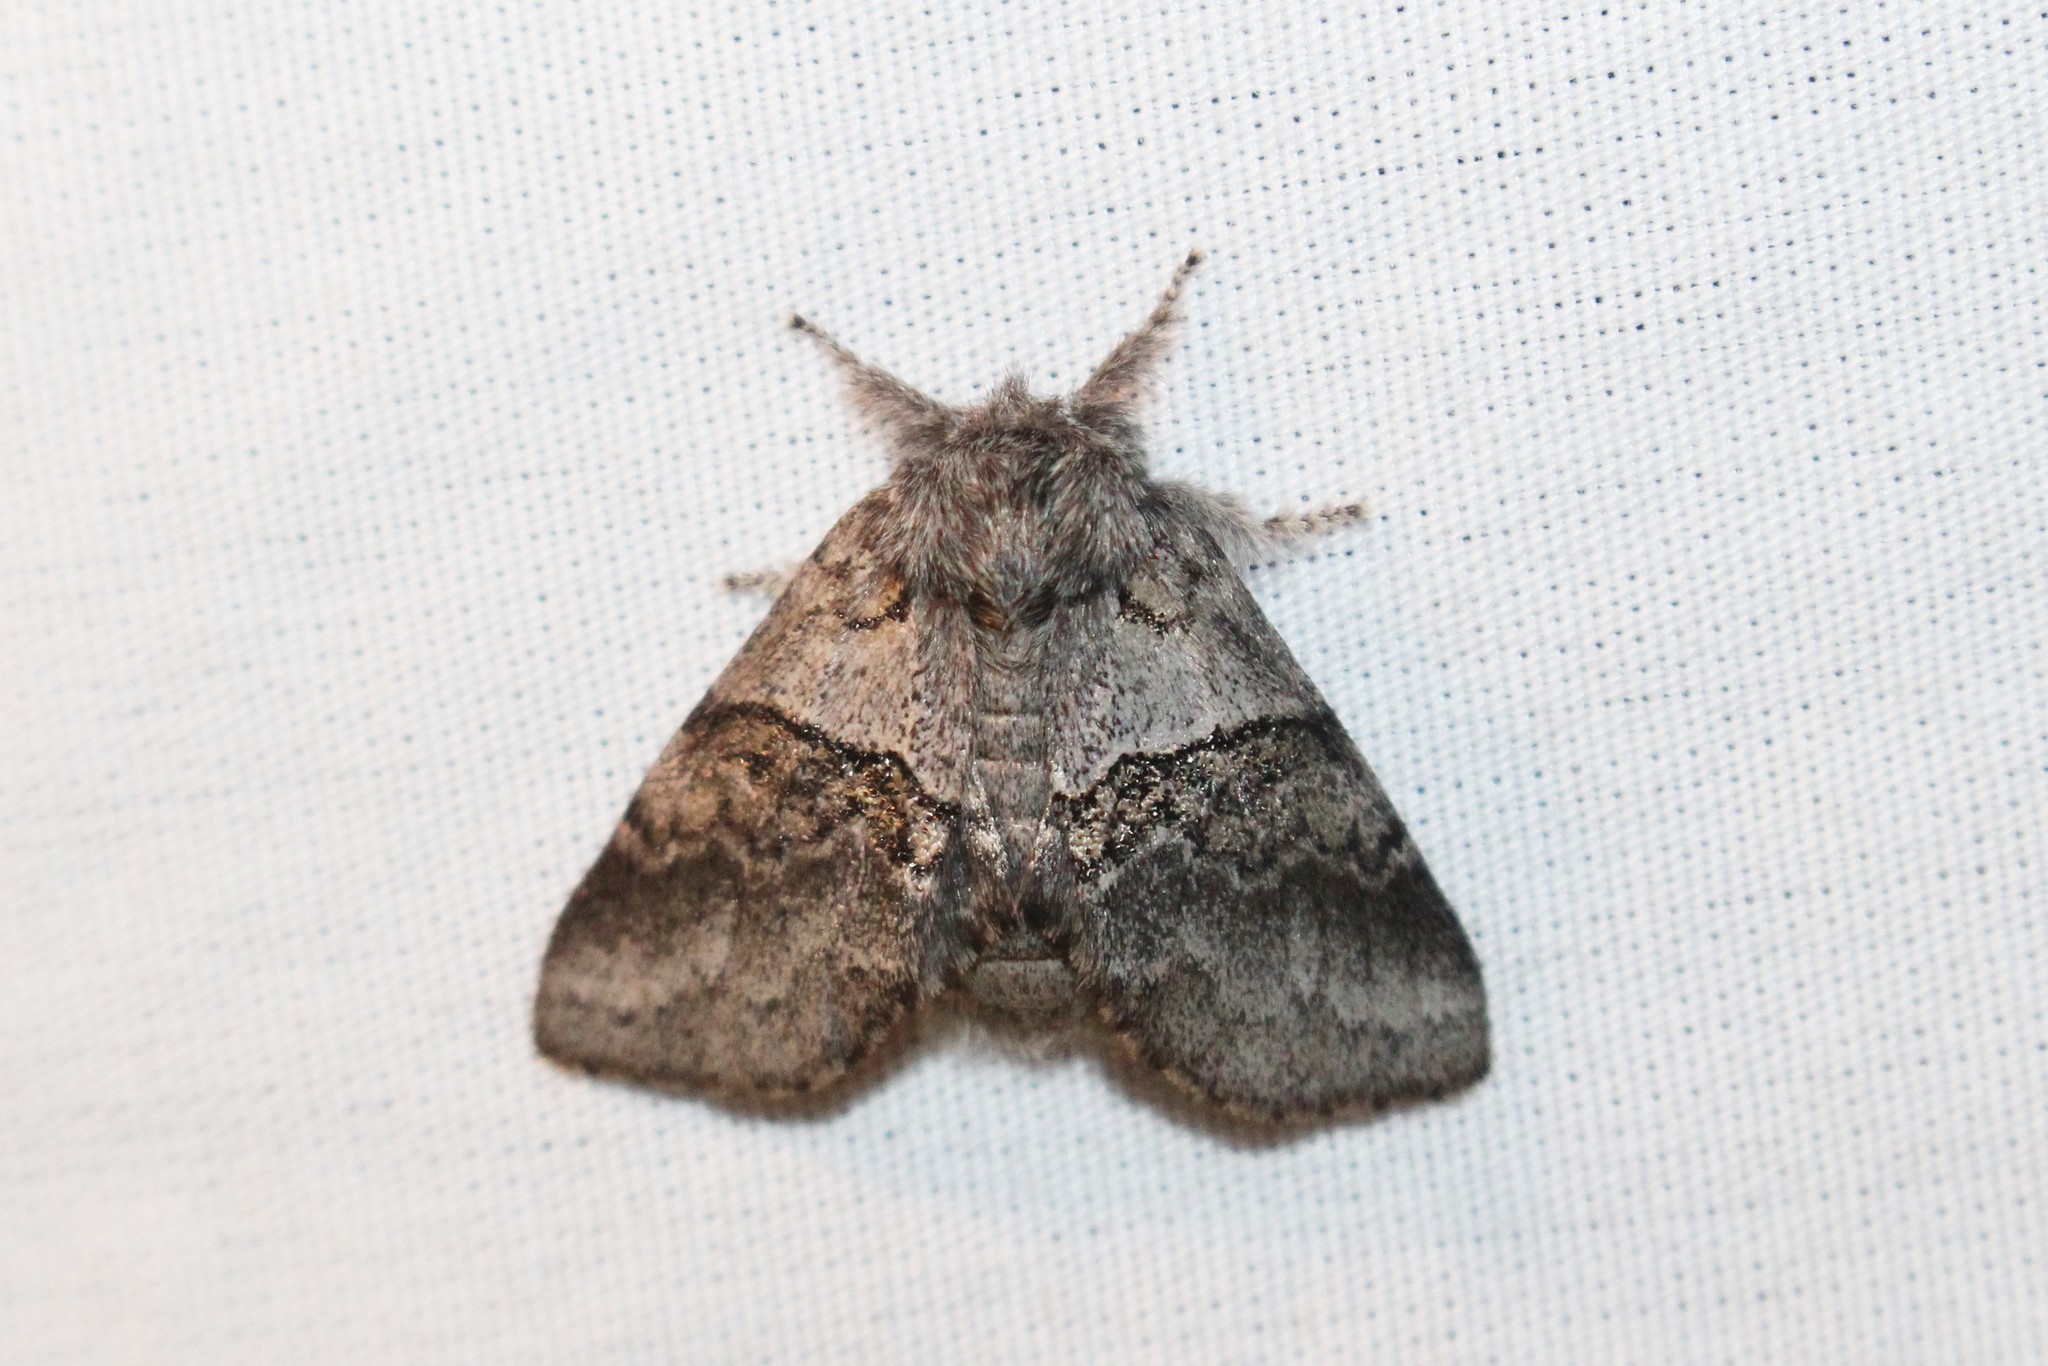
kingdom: Animalia
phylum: Arthropoda
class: Insecta
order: Lepidoptera
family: Notodontidae
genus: Gluphisia
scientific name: Gluphisia septentrionis
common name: Common gluphisia
